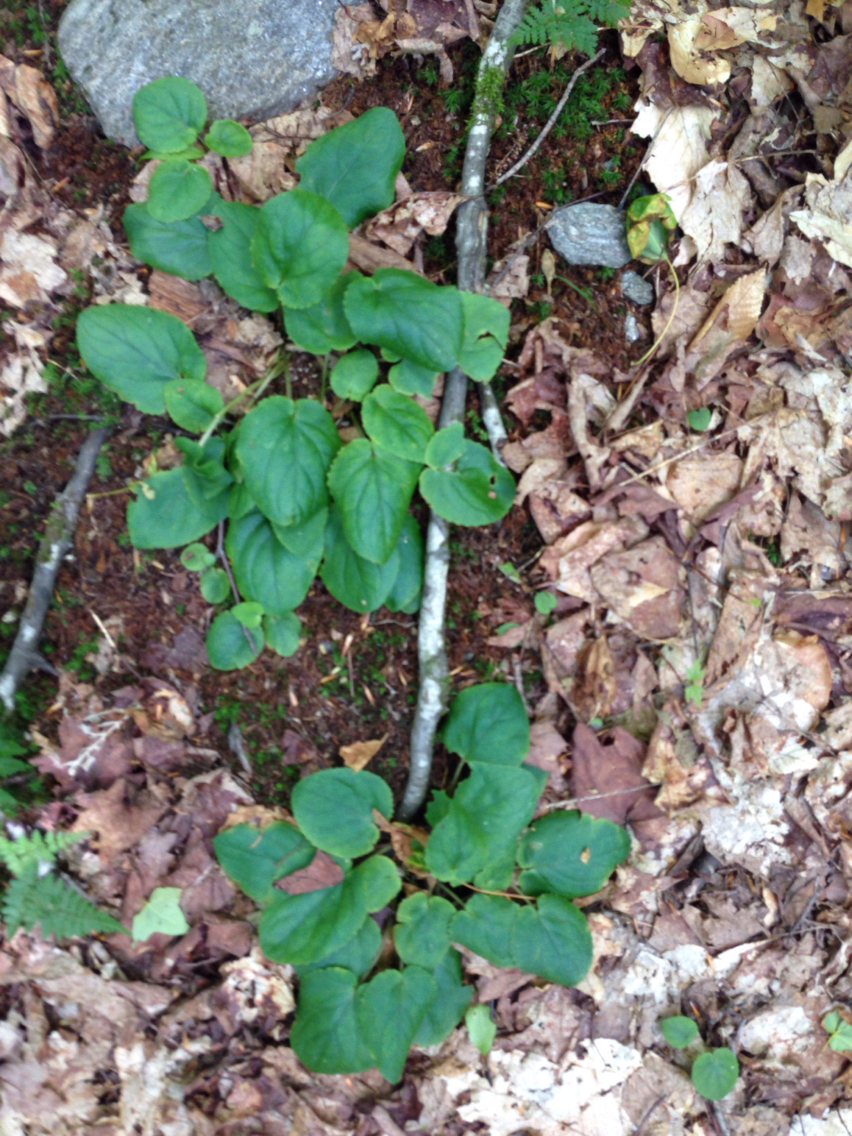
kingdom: Plantae
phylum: Tracheophyta
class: Magnoliopsida
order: Malpighiales
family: Violaceae
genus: Viola
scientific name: Viola rotundifolia
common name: Early yellow violet
